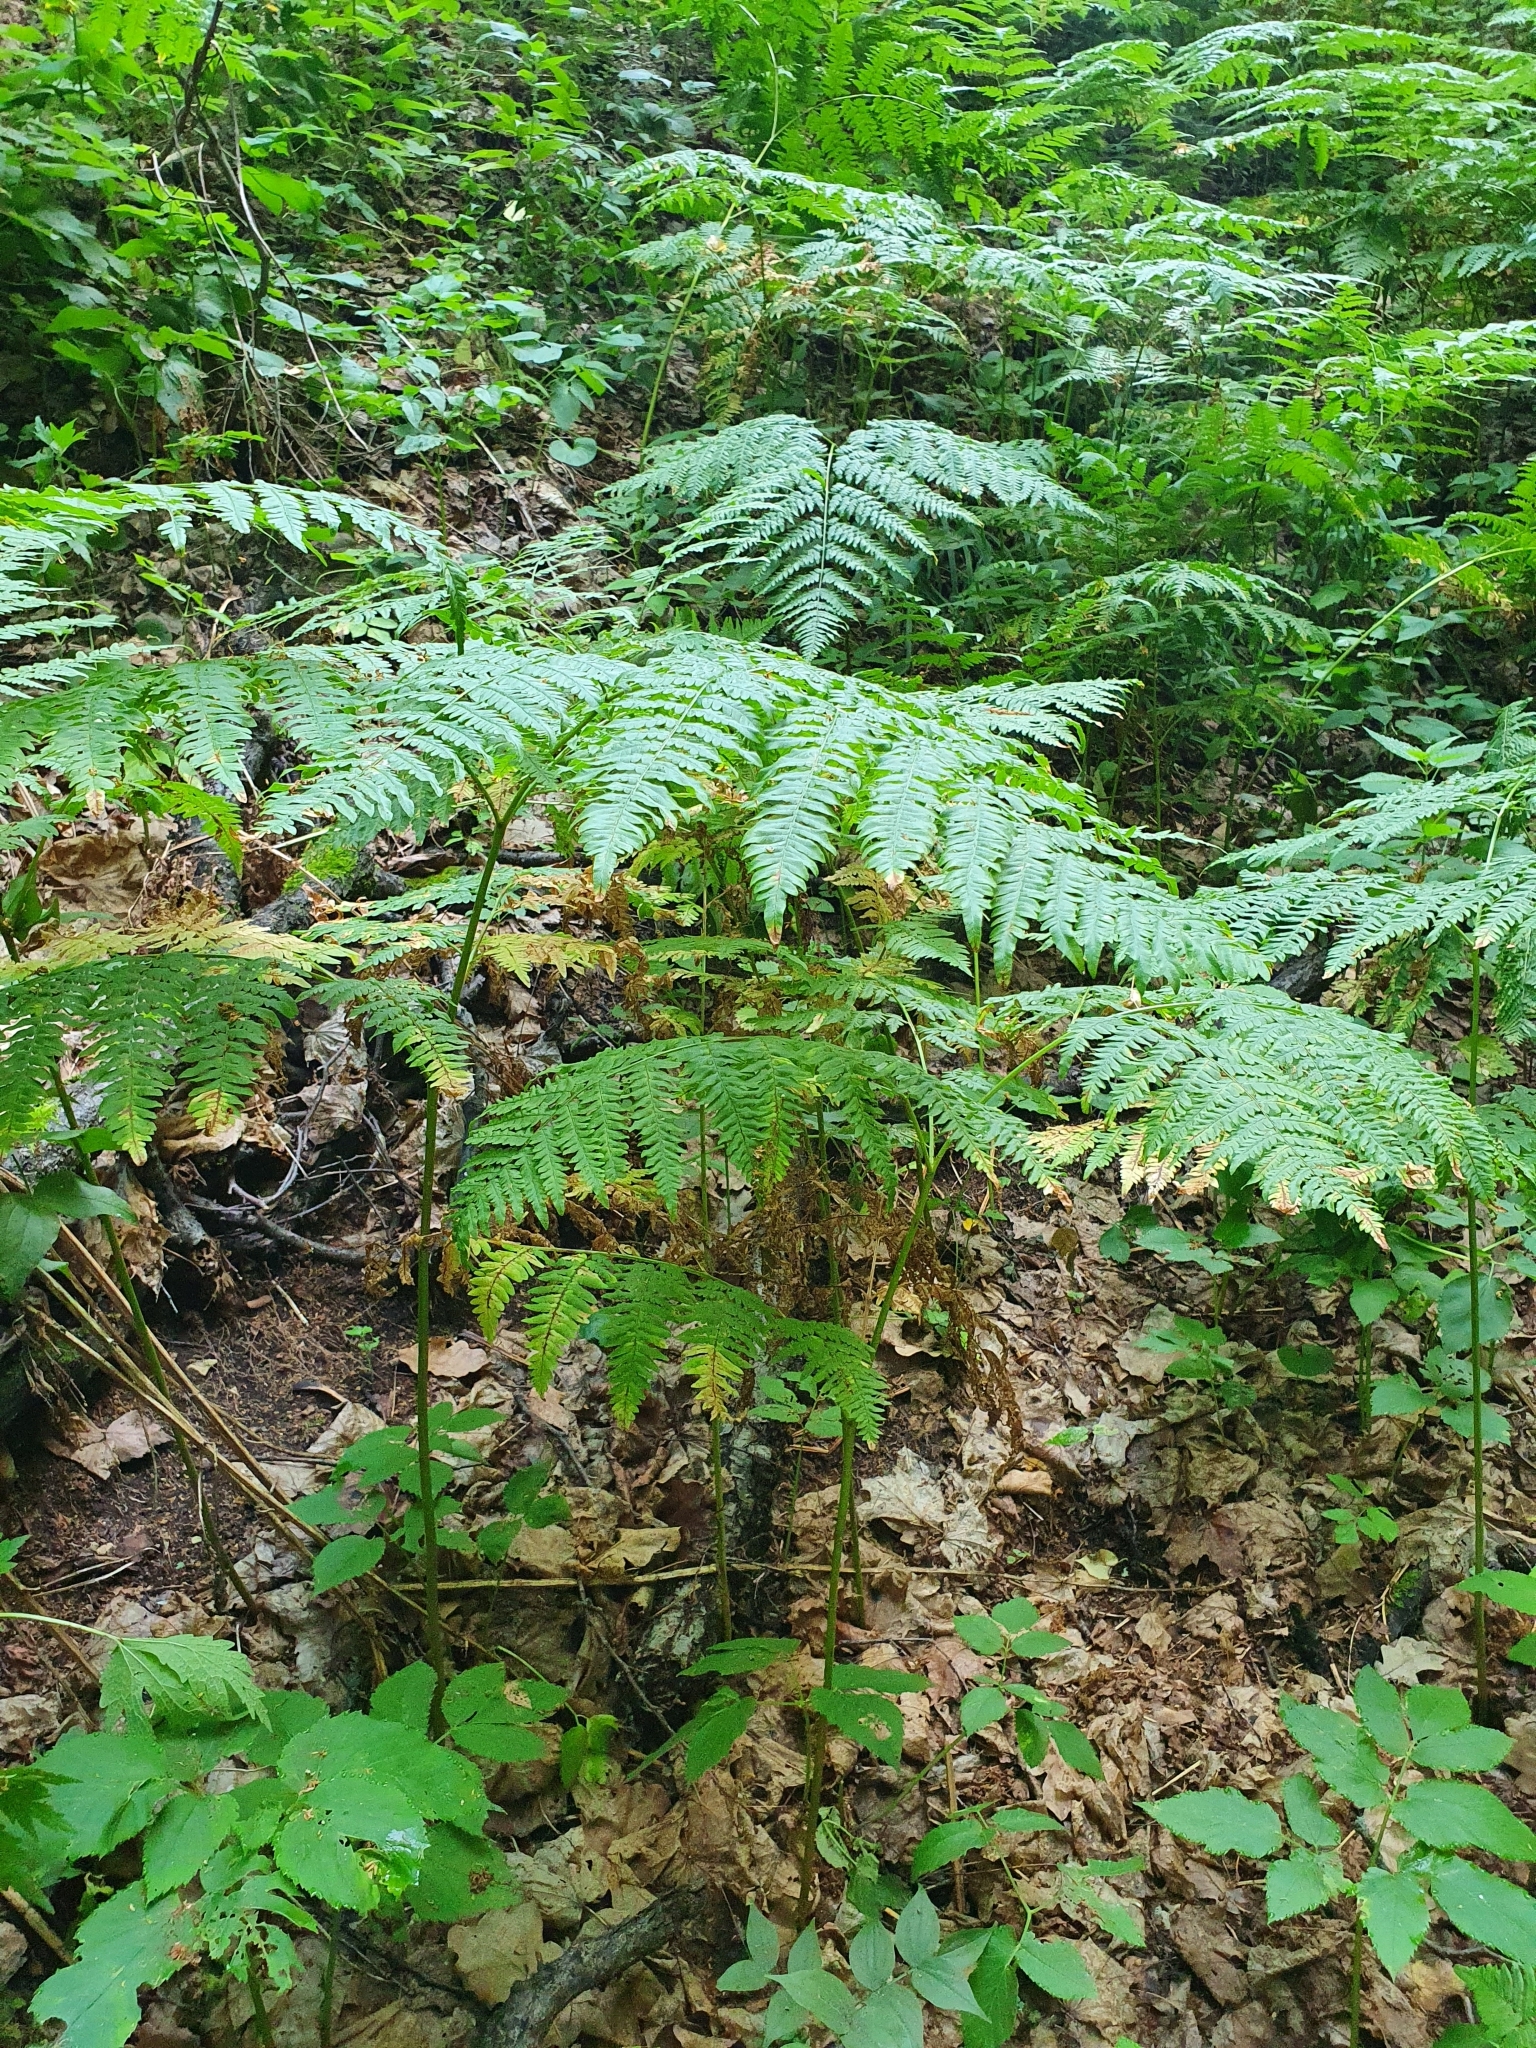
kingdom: Plantae
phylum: Tracheophyta
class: Polypodiopsida
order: Polypodiales
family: Dennstaedtiaceae
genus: Pteridium
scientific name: Pteridium aquilinum
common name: Bracken
